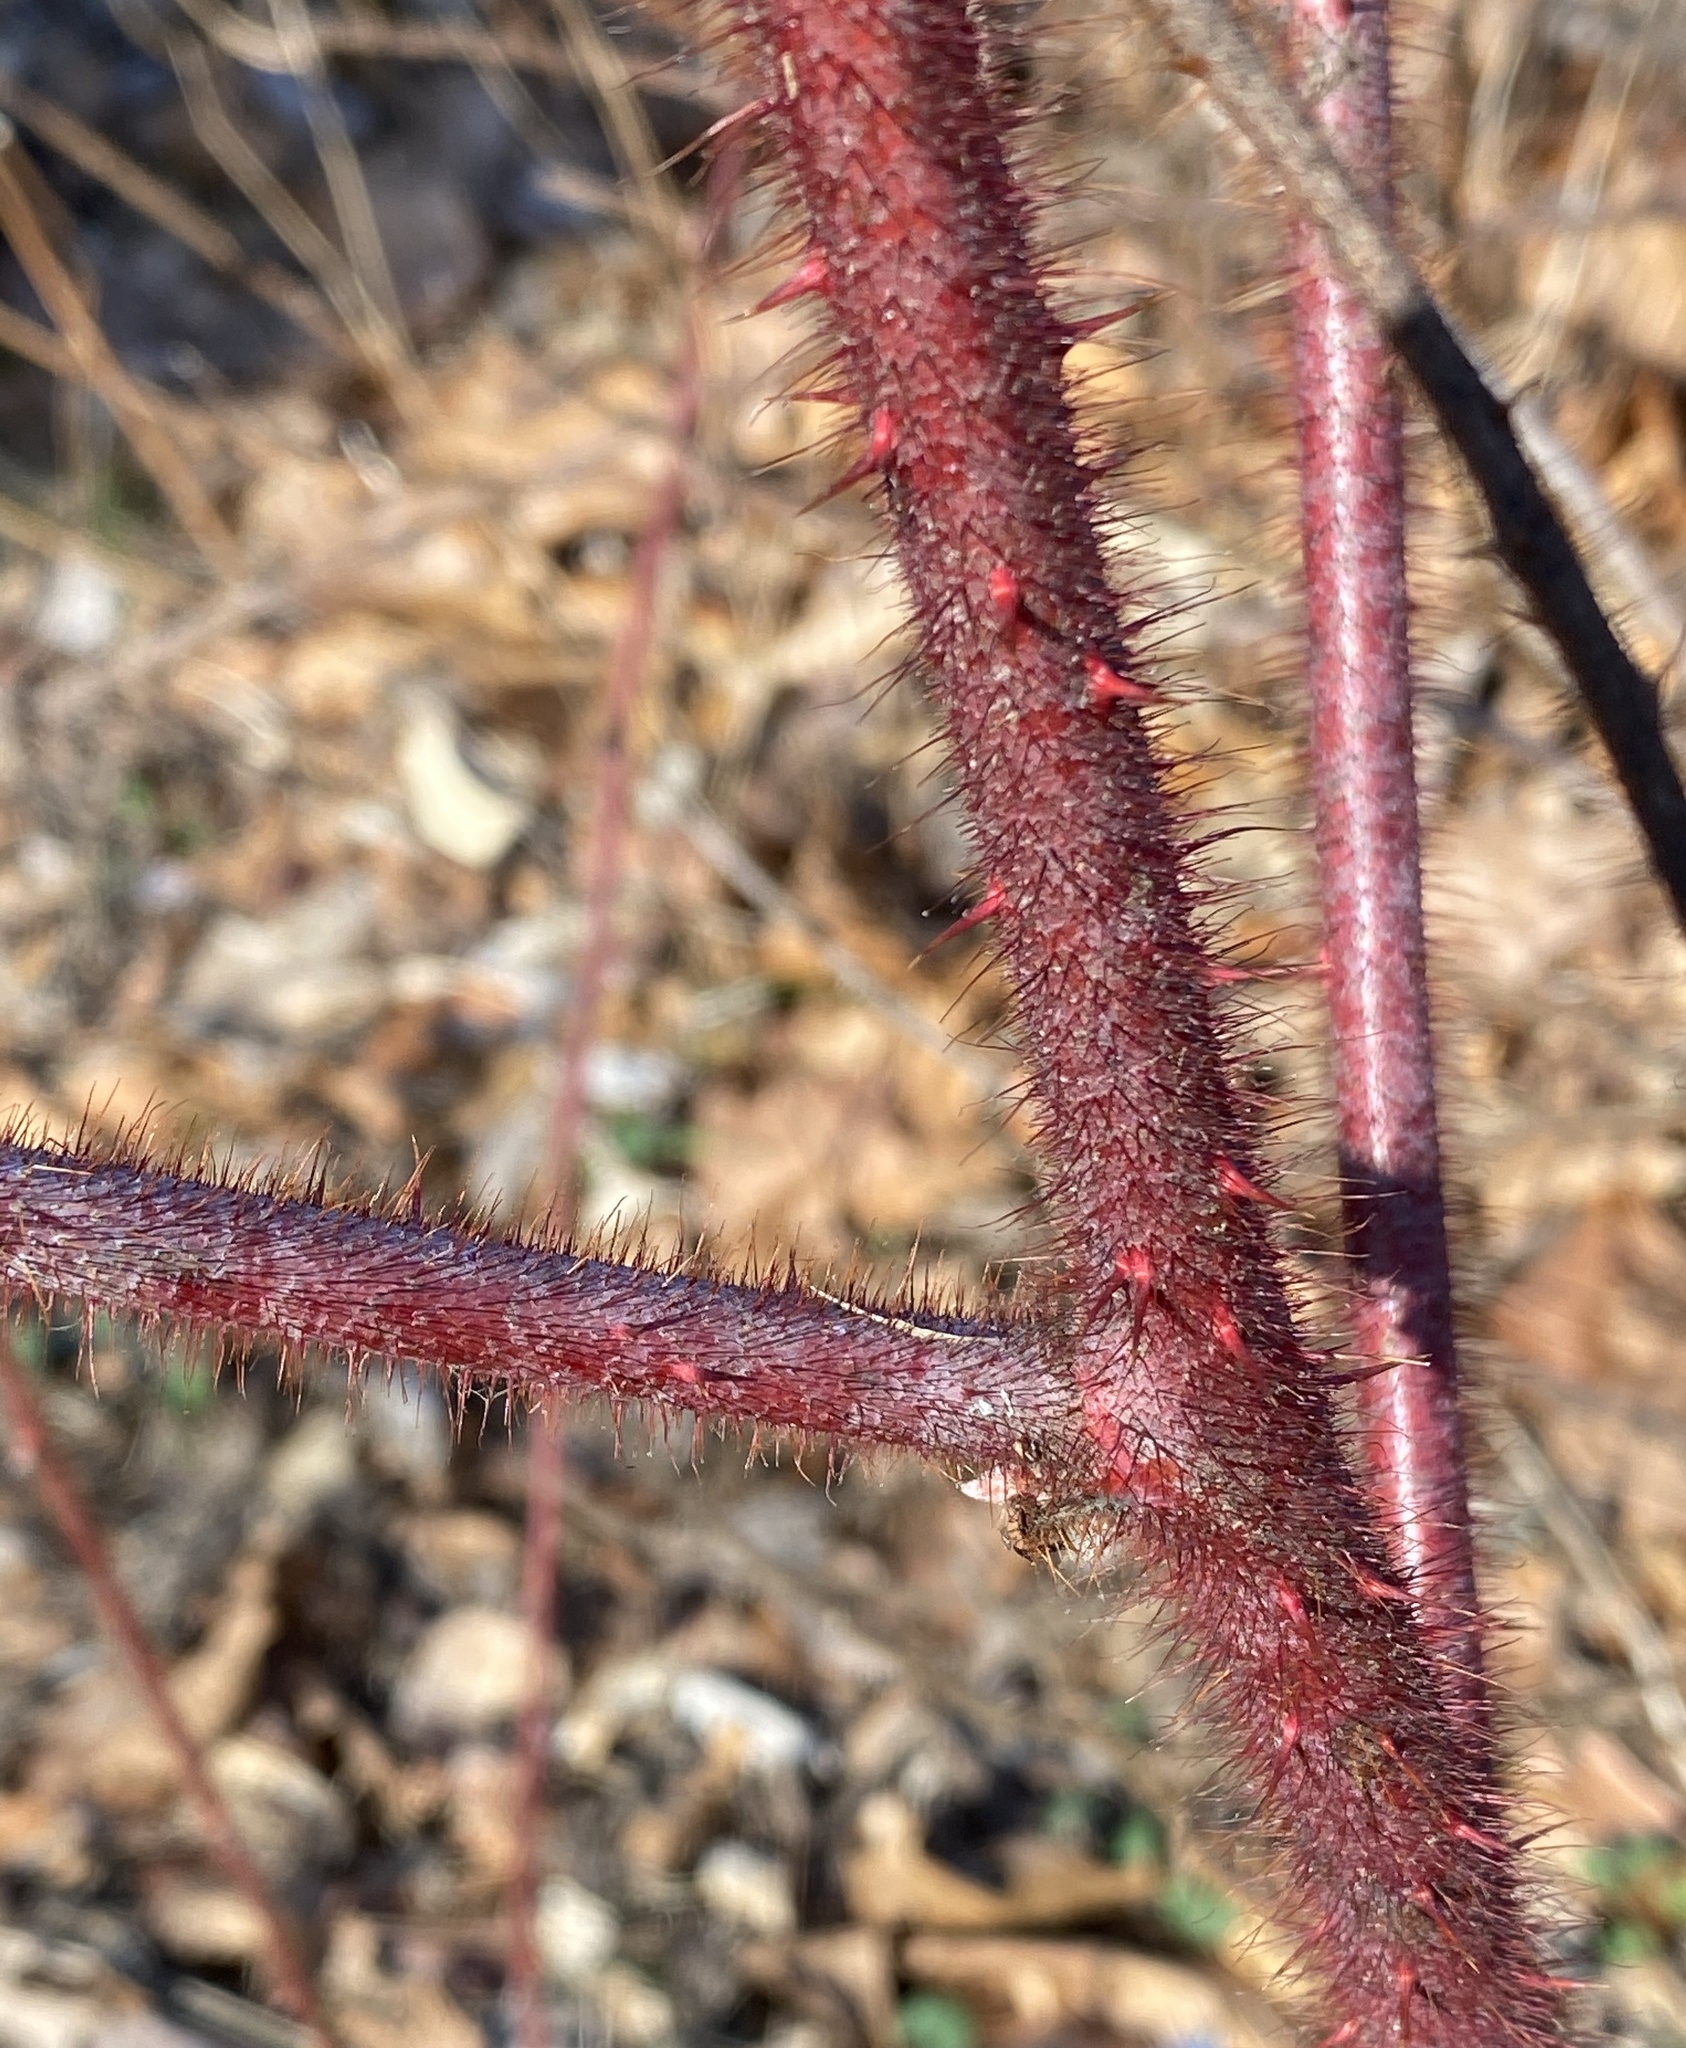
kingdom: Plantae
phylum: Tracheophyta
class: Magnoliopsida
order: Rosales
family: Rosaceae
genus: Rubus
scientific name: Rubus phoenicolasius
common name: Japanese wineberry
